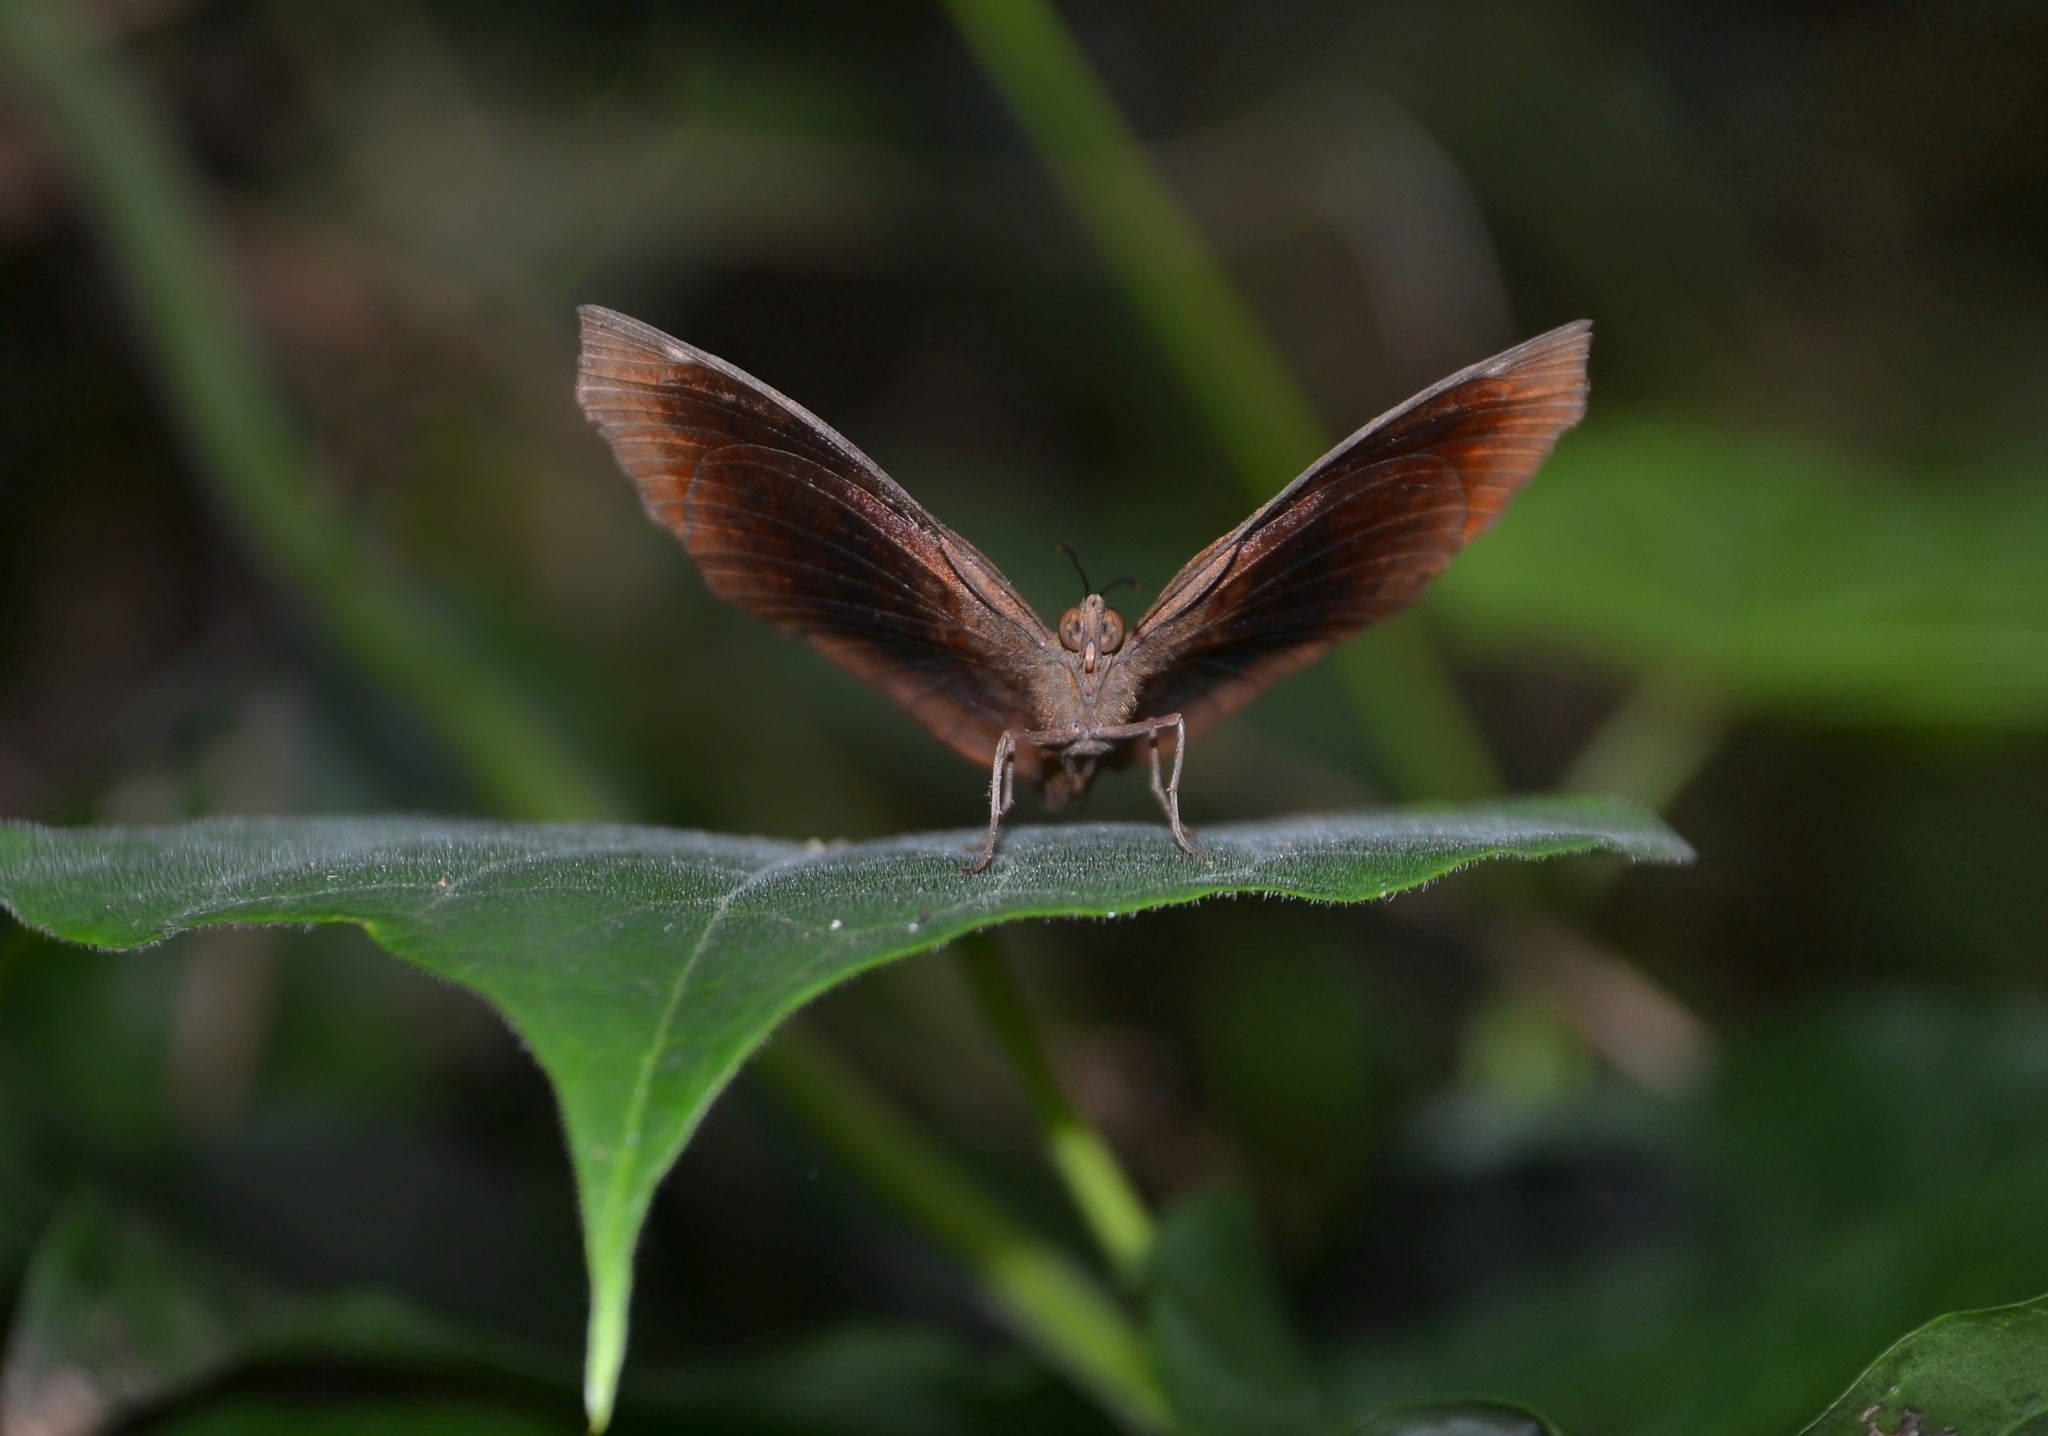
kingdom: Animalia
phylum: Arthropoda
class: Insecta
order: Lepidoptera
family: Nymphalidae
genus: Ariadne
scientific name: Ariadne ariadne
